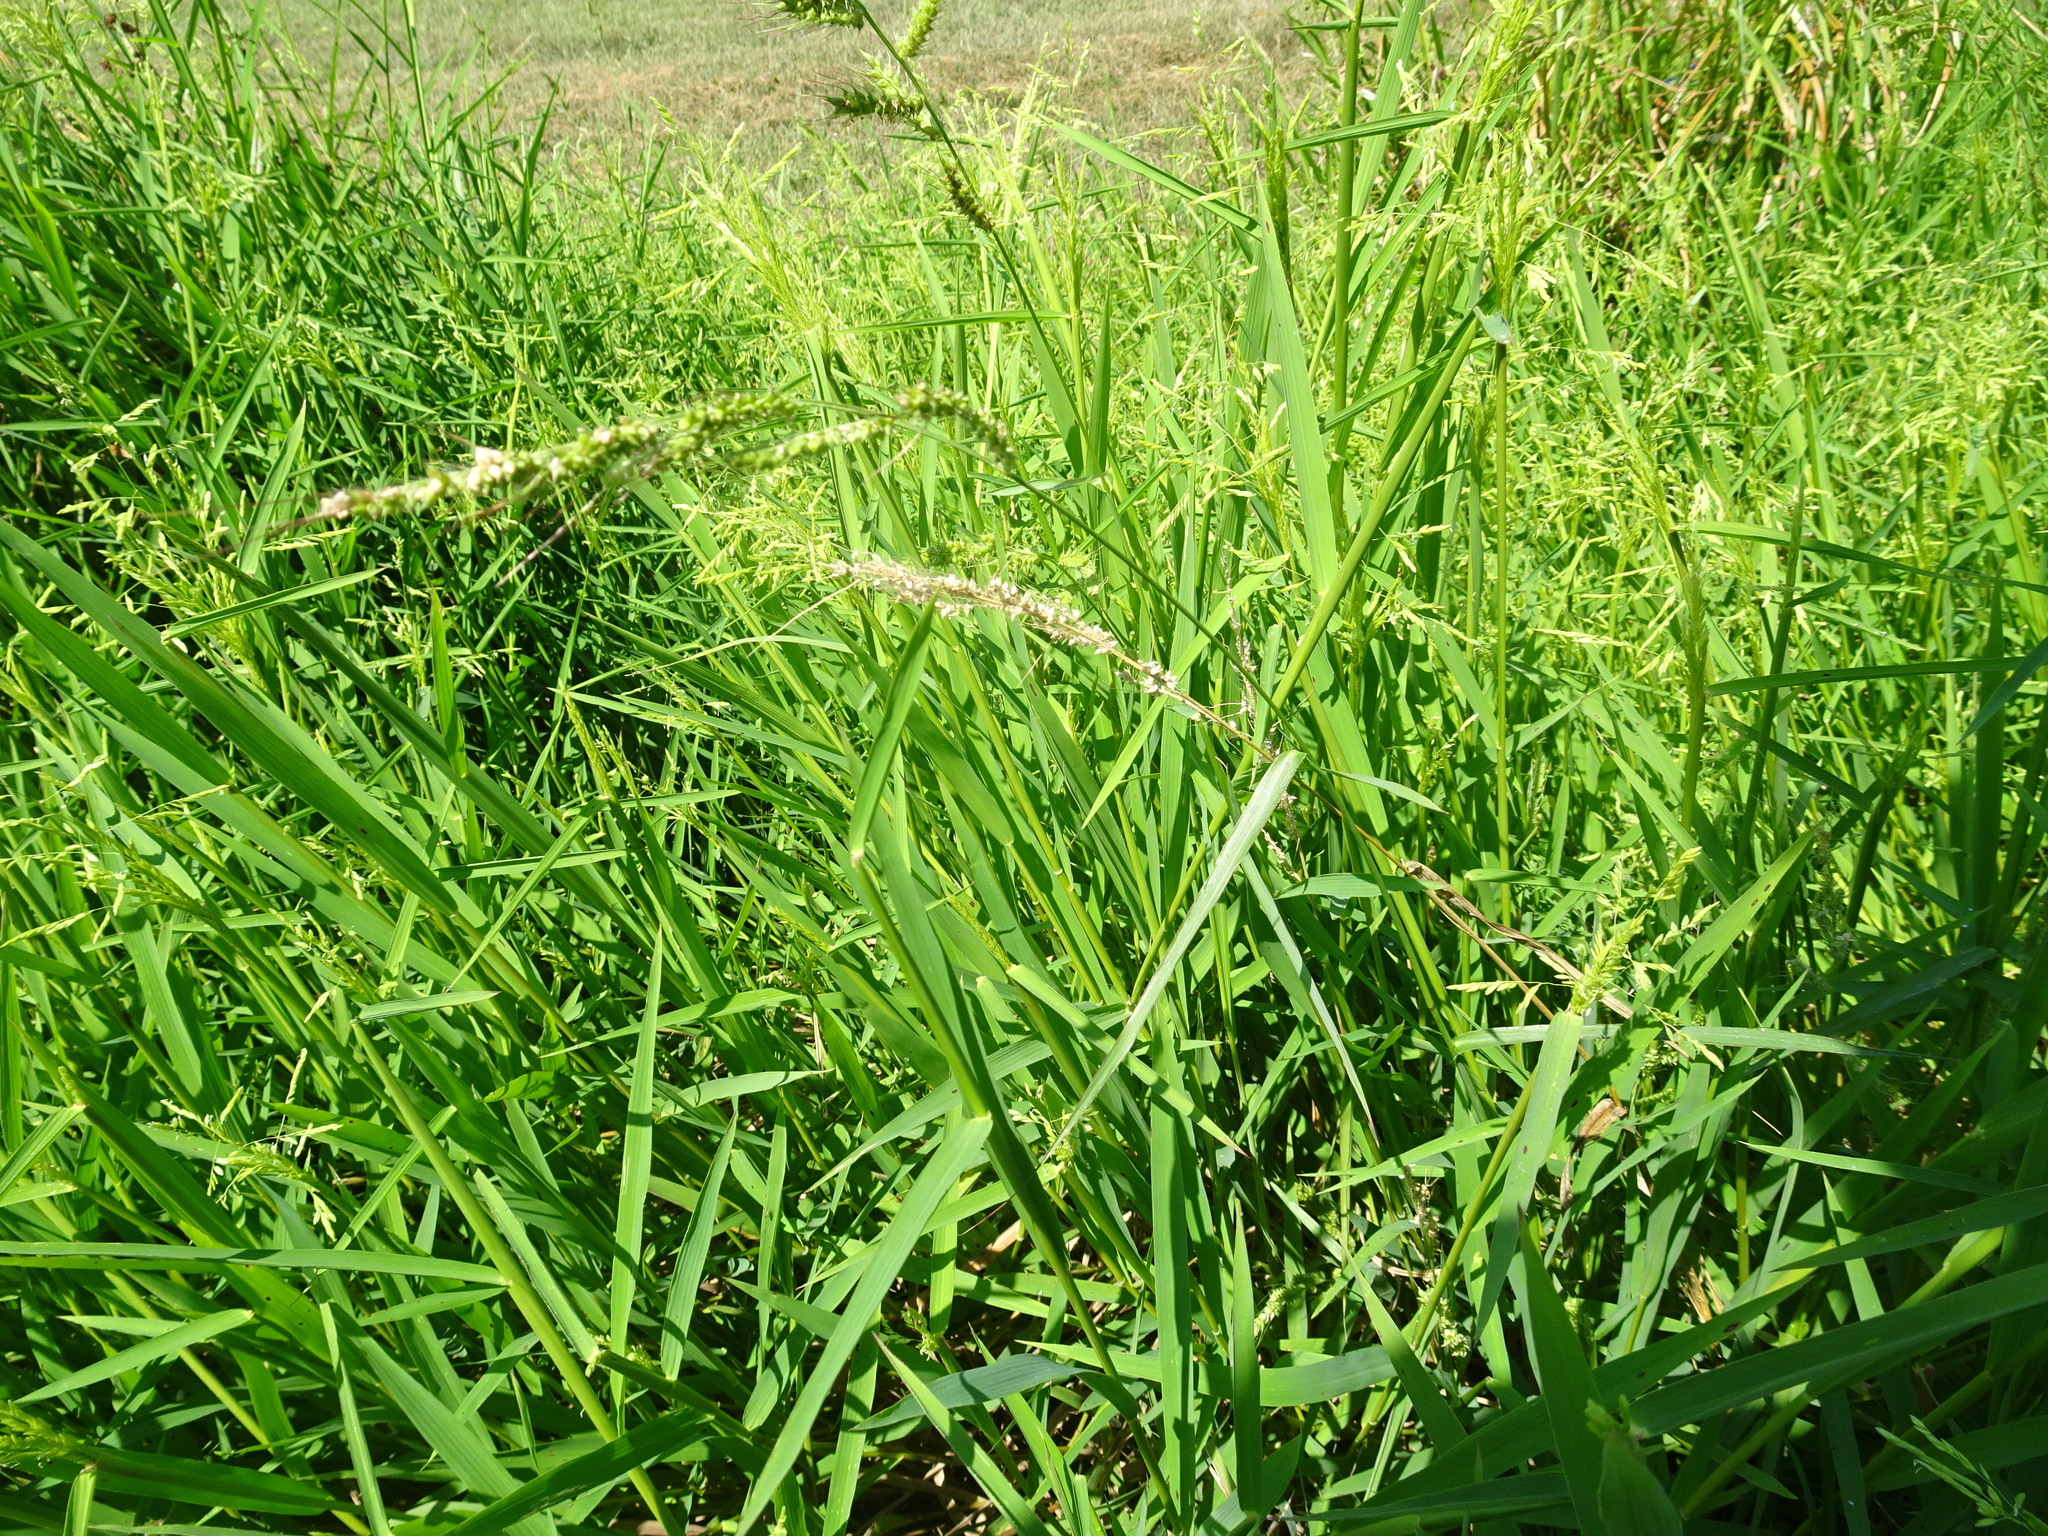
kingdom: Plantae
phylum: Tracheophyta
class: Liliopsida
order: Poales
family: Poaceae
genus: Echinochloa
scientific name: Echinochloa
